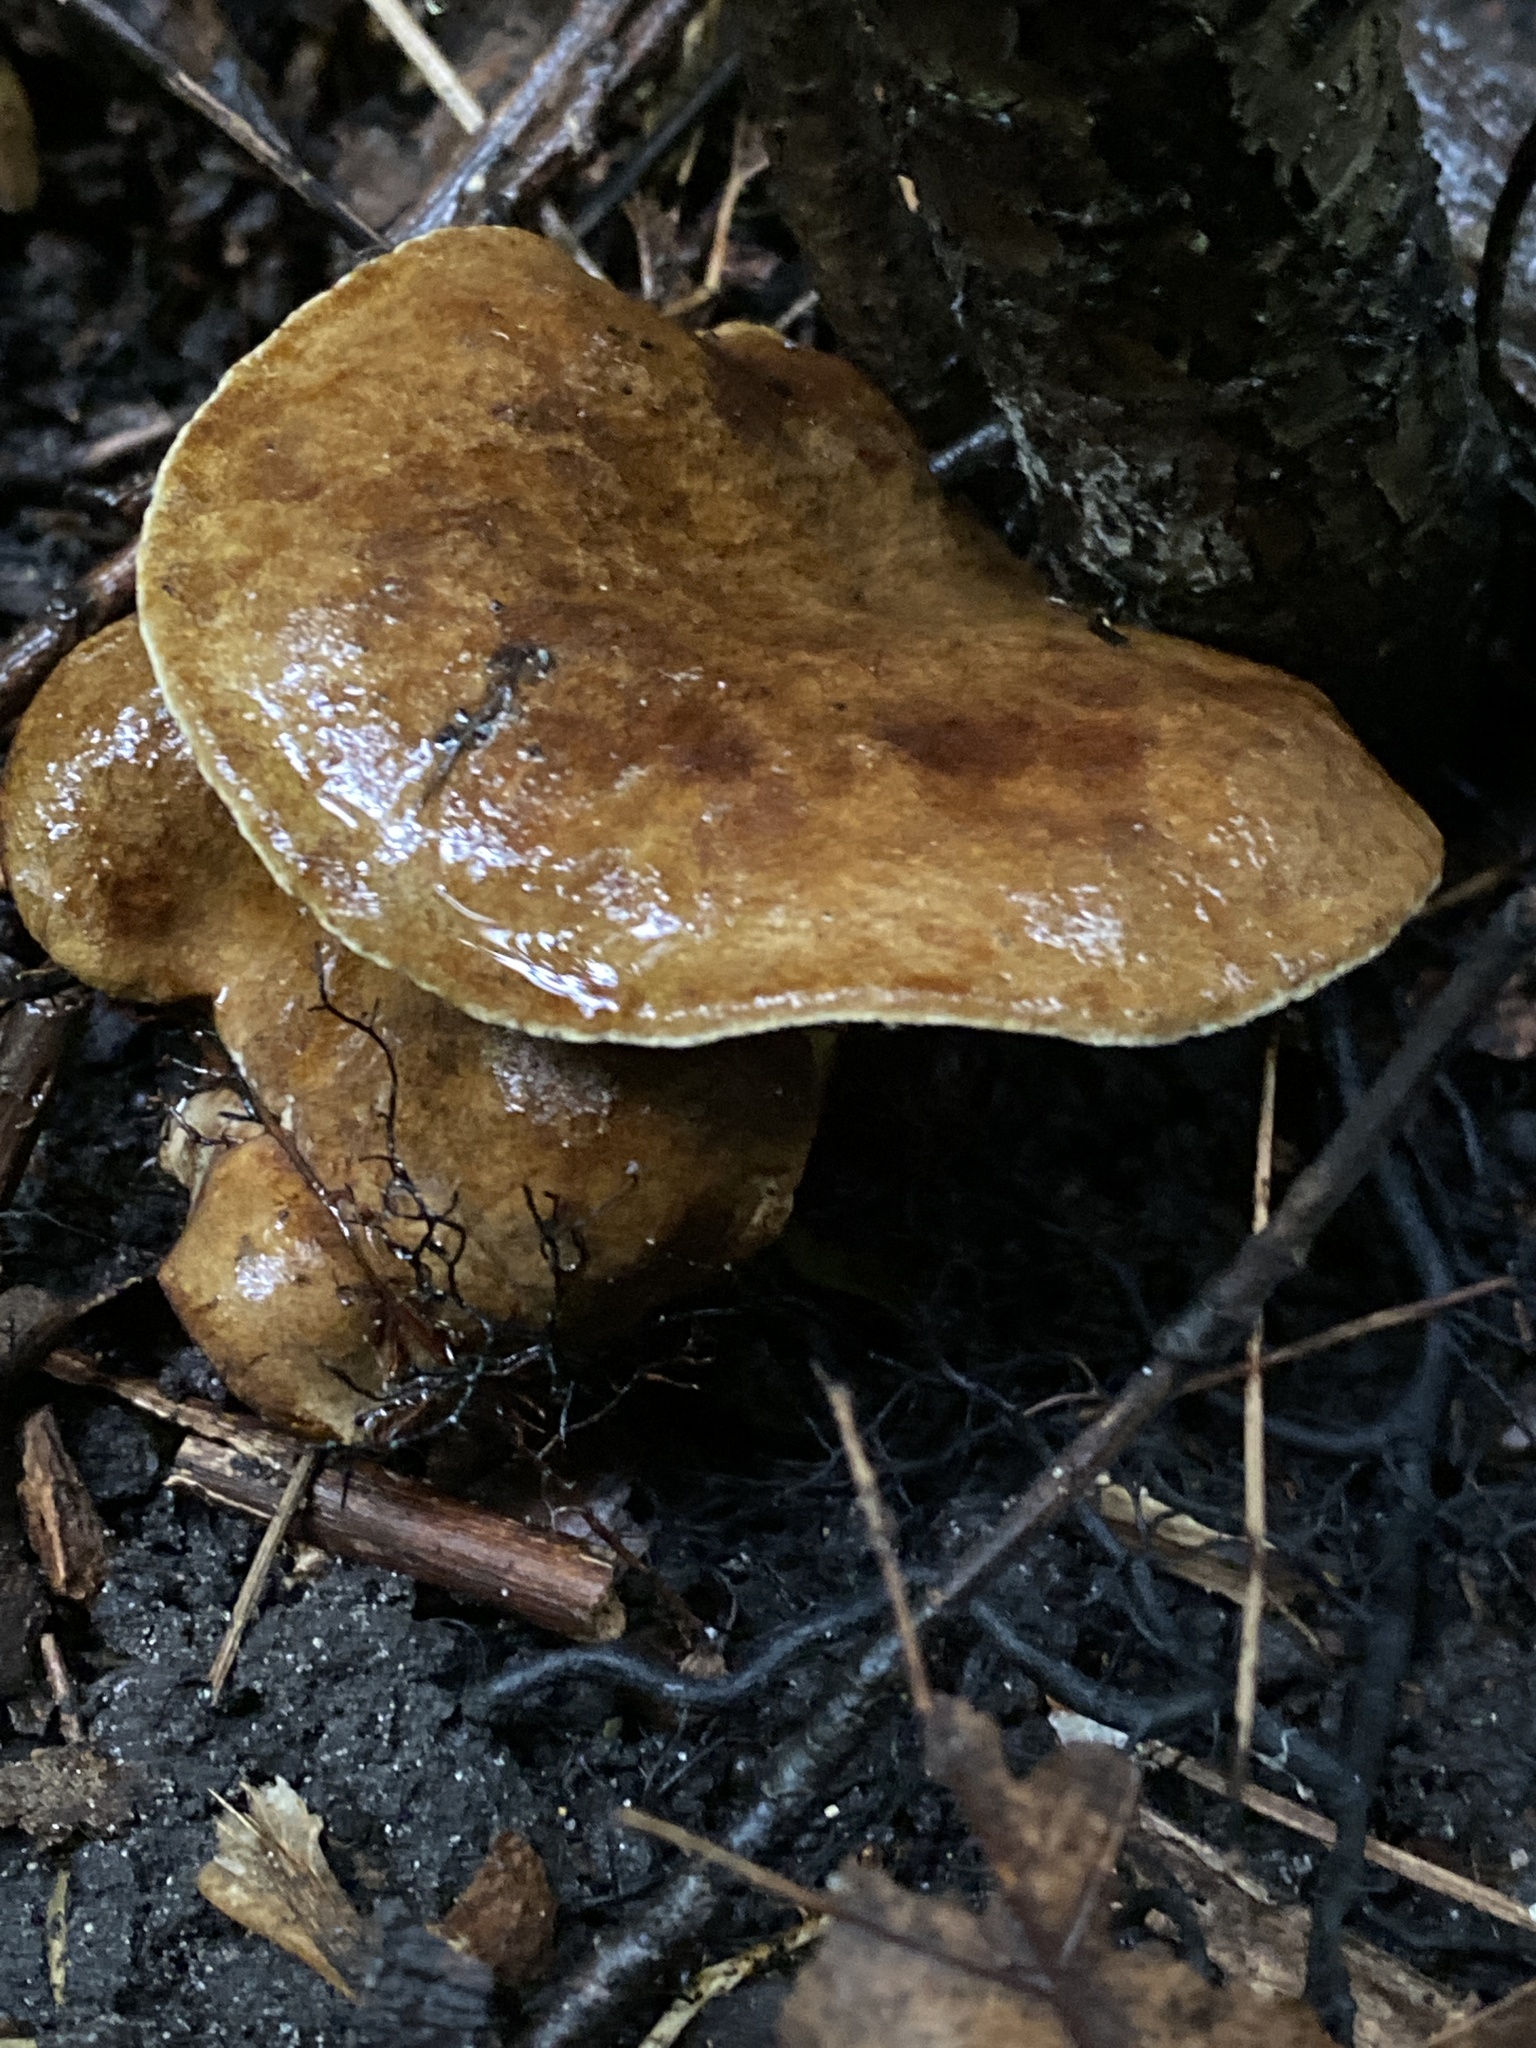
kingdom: Fungi
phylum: Basidiomycota
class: Agaricomycetes
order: Boletales
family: Boletinellaceae
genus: Boletinellus
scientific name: Boletinellus merulioides
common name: Ash tree bolete
